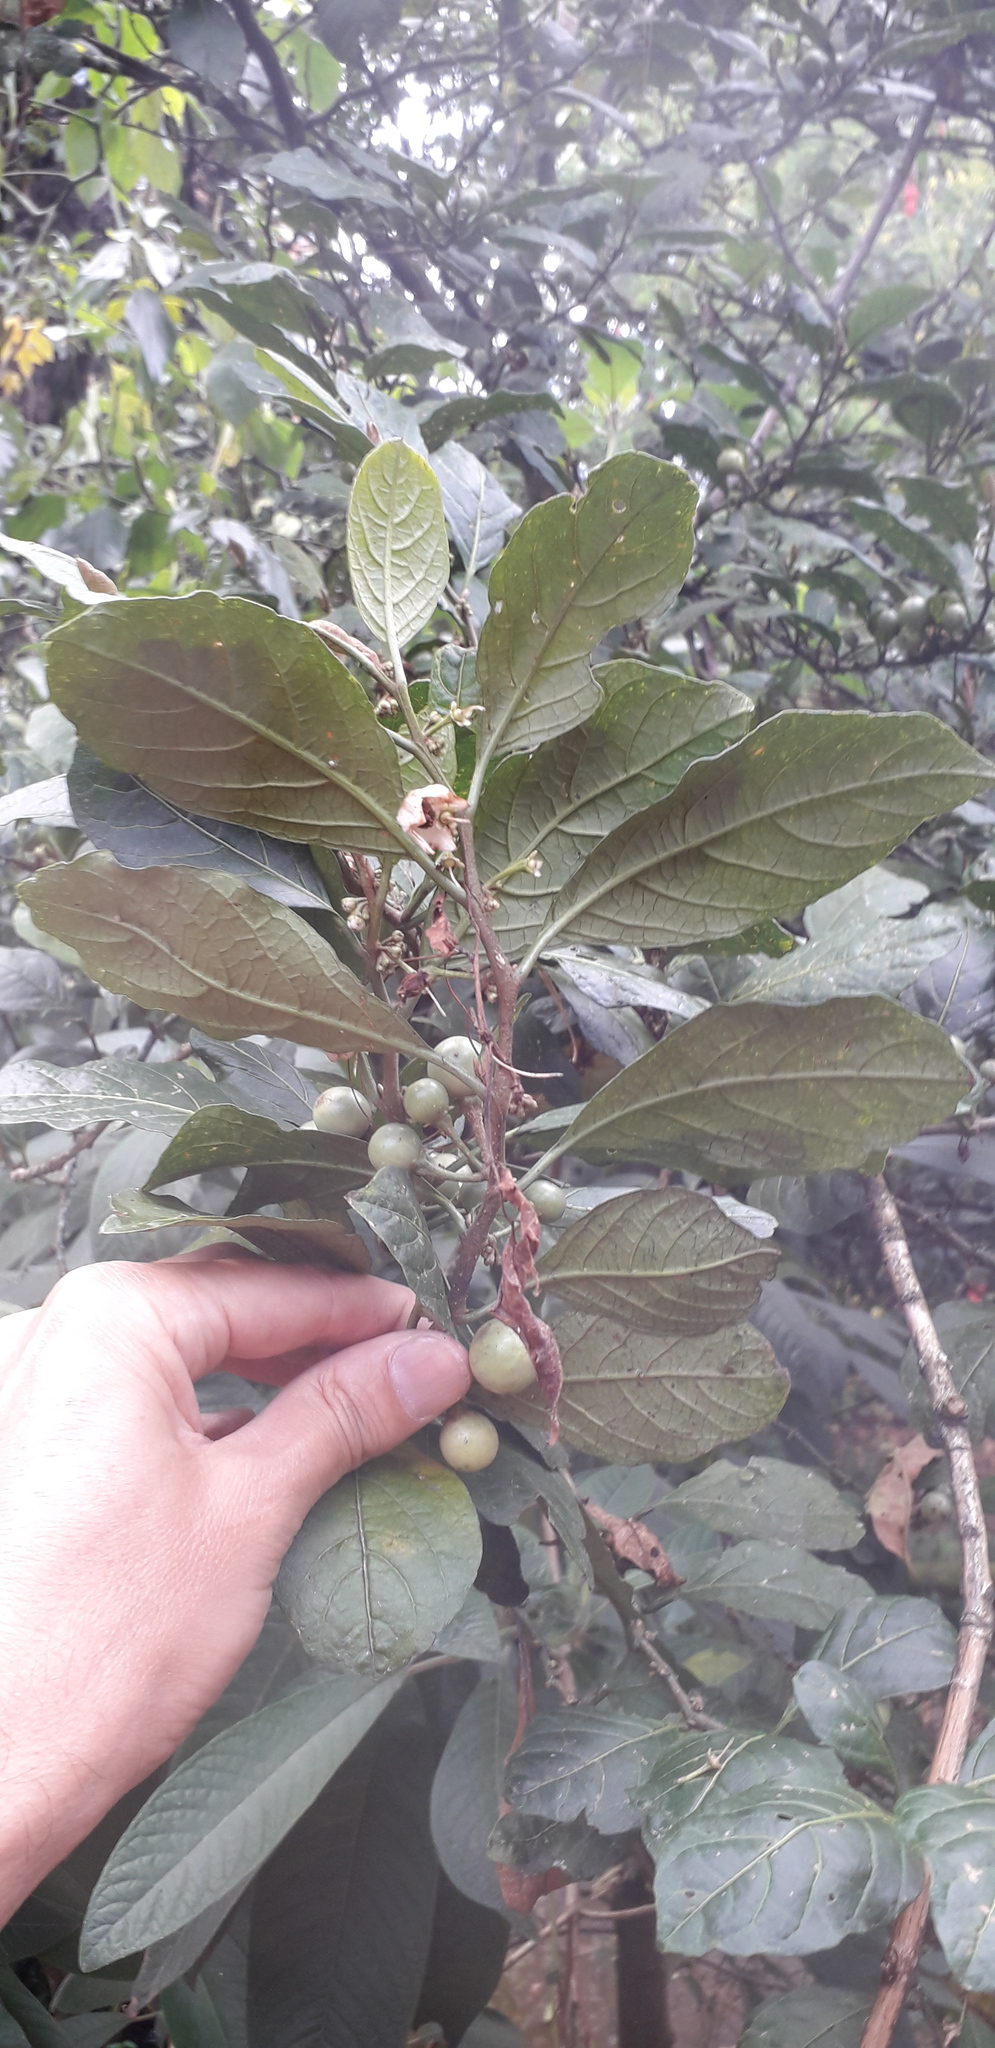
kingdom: Plantae
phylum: Tracheophyta
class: Magnoliopsida
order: Solanales
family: Solanaceae
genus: Solanum
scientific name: Solanum cornifolium
